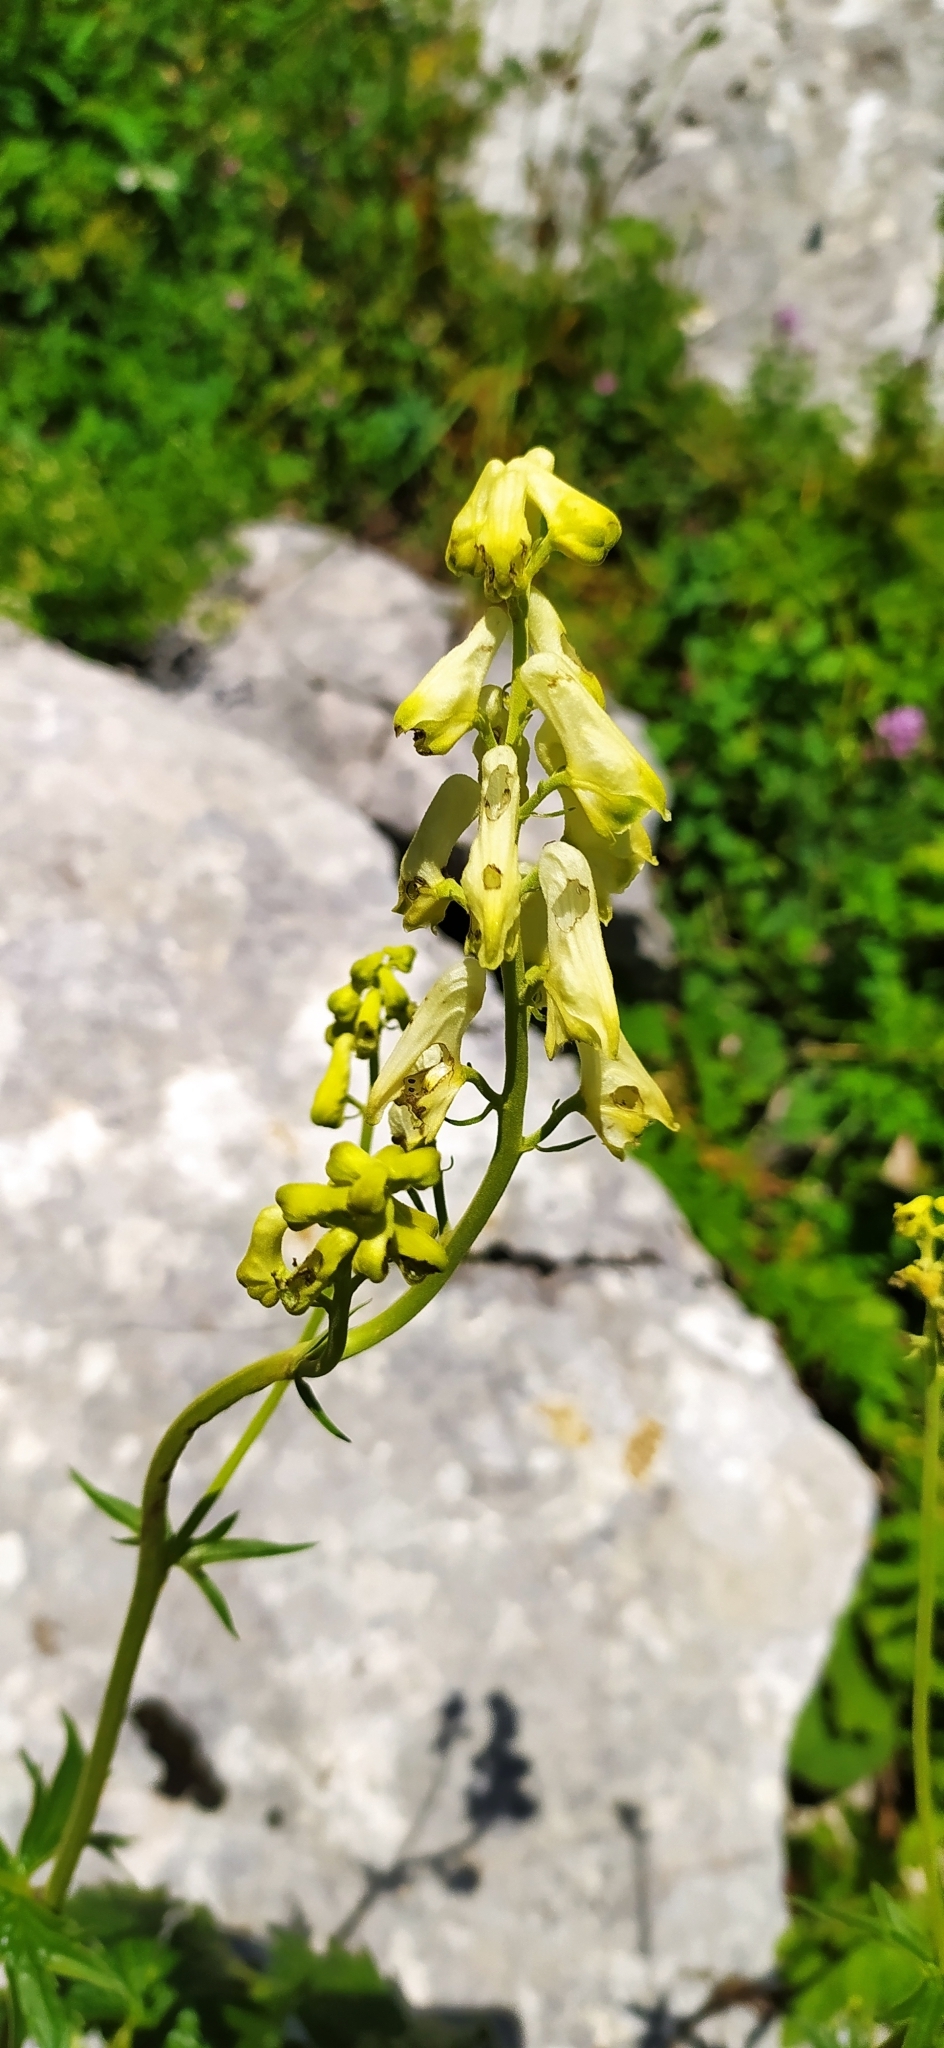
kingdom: Plantae
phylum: Tracheophyta
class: Magnoliopsida
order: Ranunculales
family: Ranunculaceae
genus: Aconitum
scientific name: Aconitum lasiostomum
